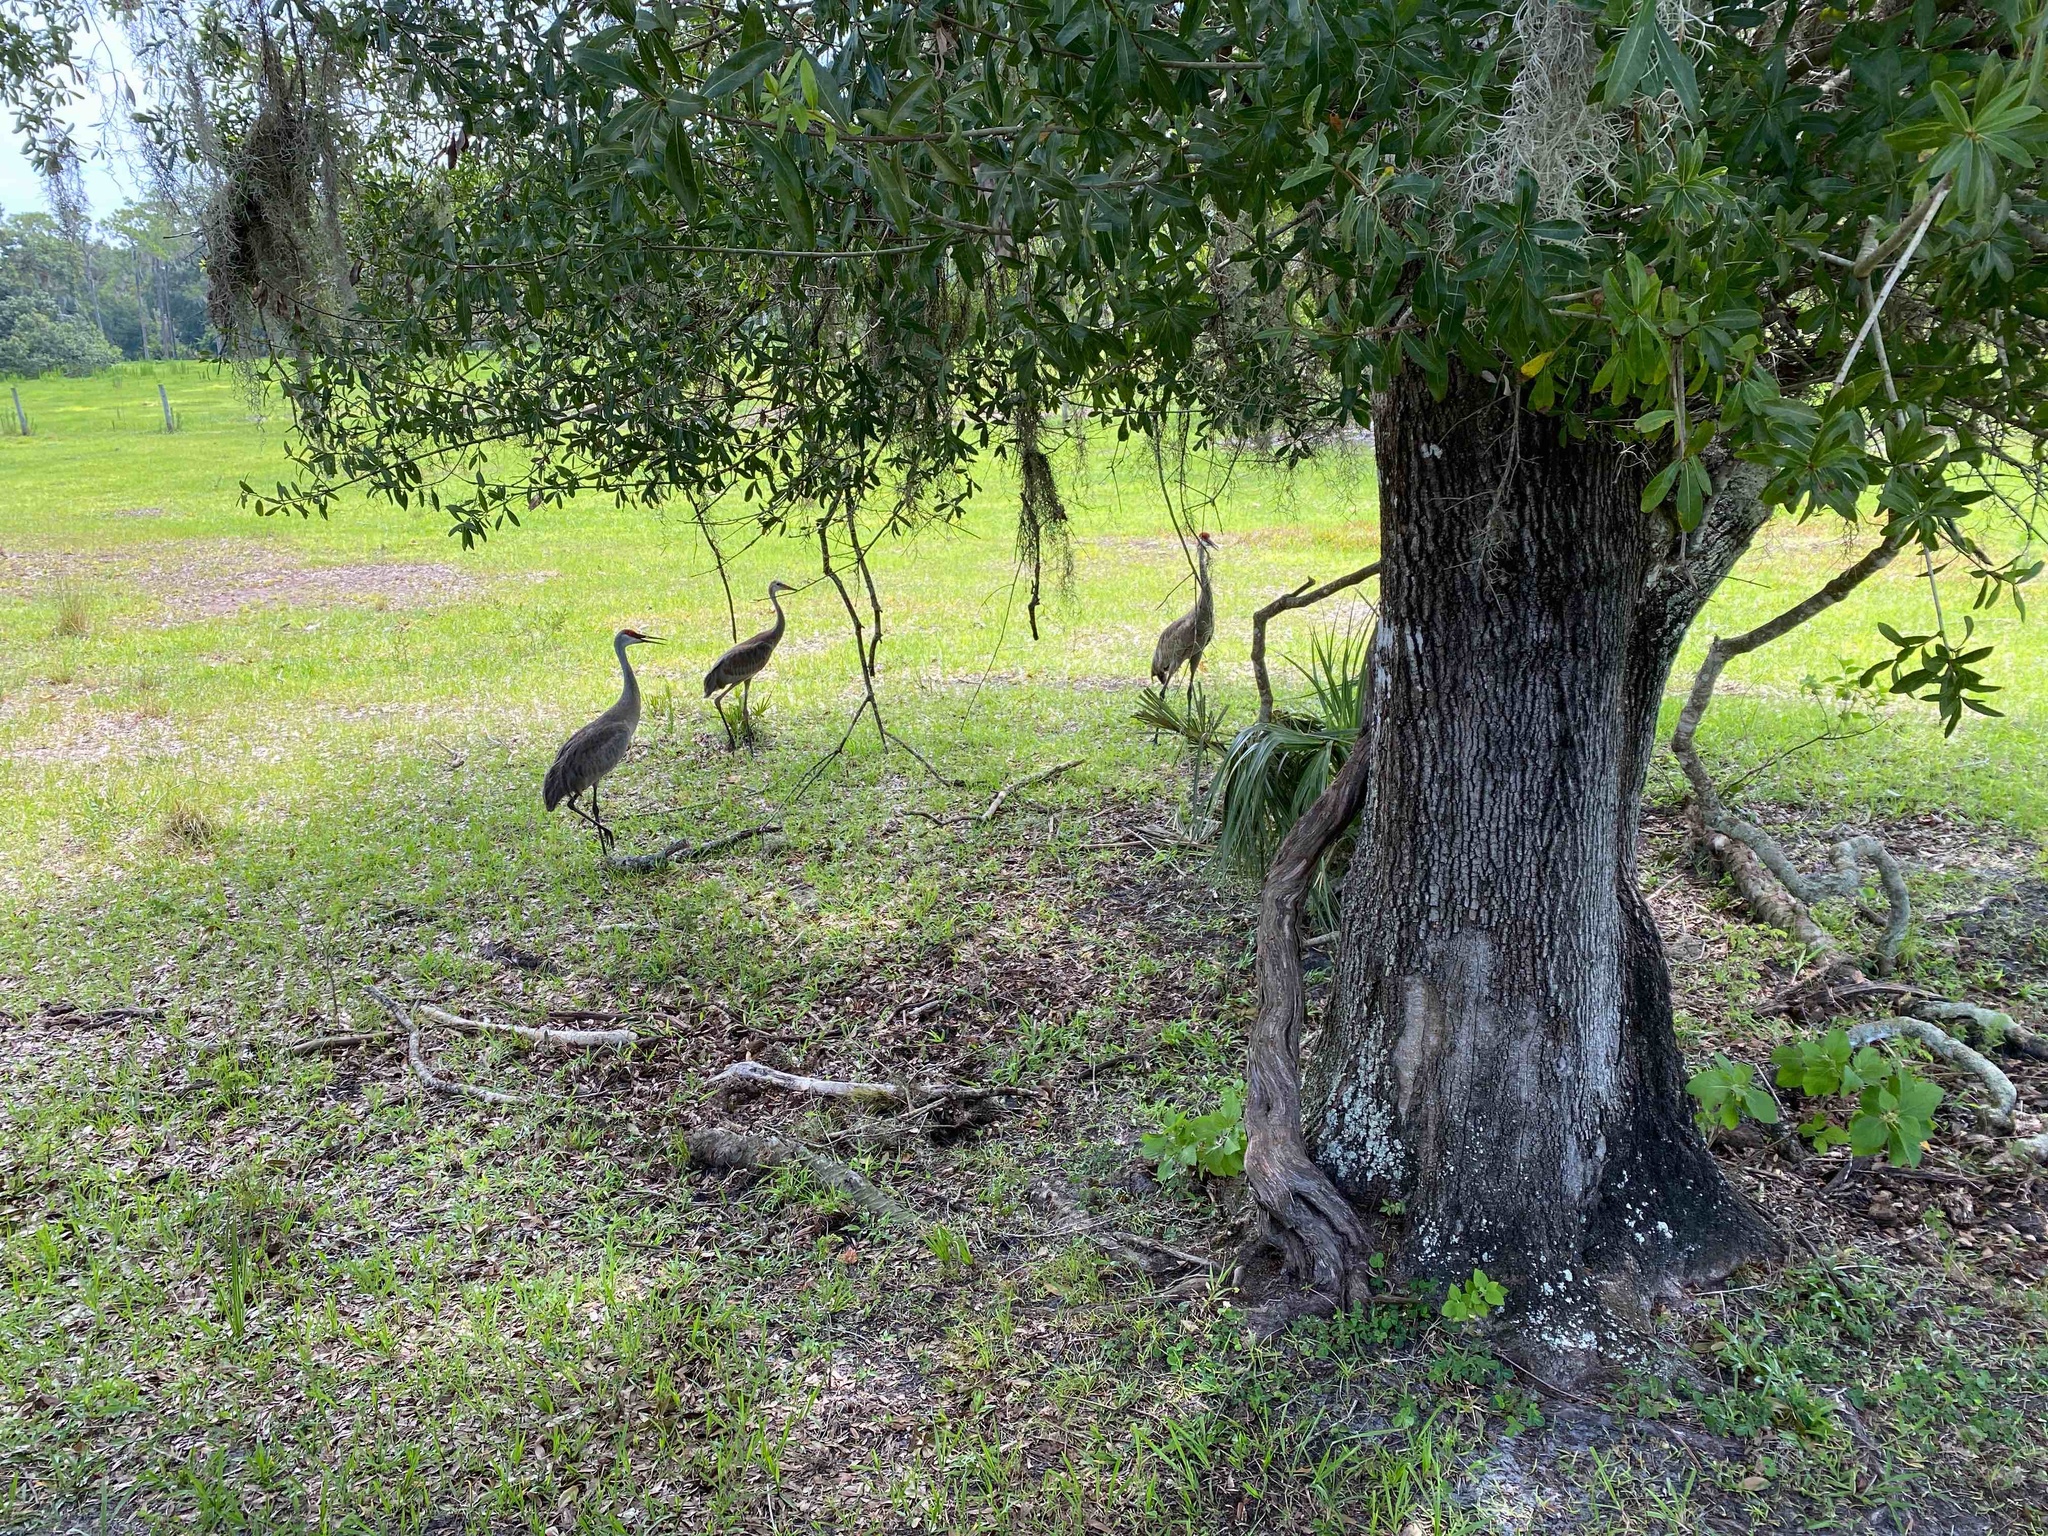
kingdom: Animalia
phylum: Chordata
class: Aves
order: Gruiformes
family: Gruidae
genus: Grus
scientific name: Grus canadensis
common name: Sandhill crane
